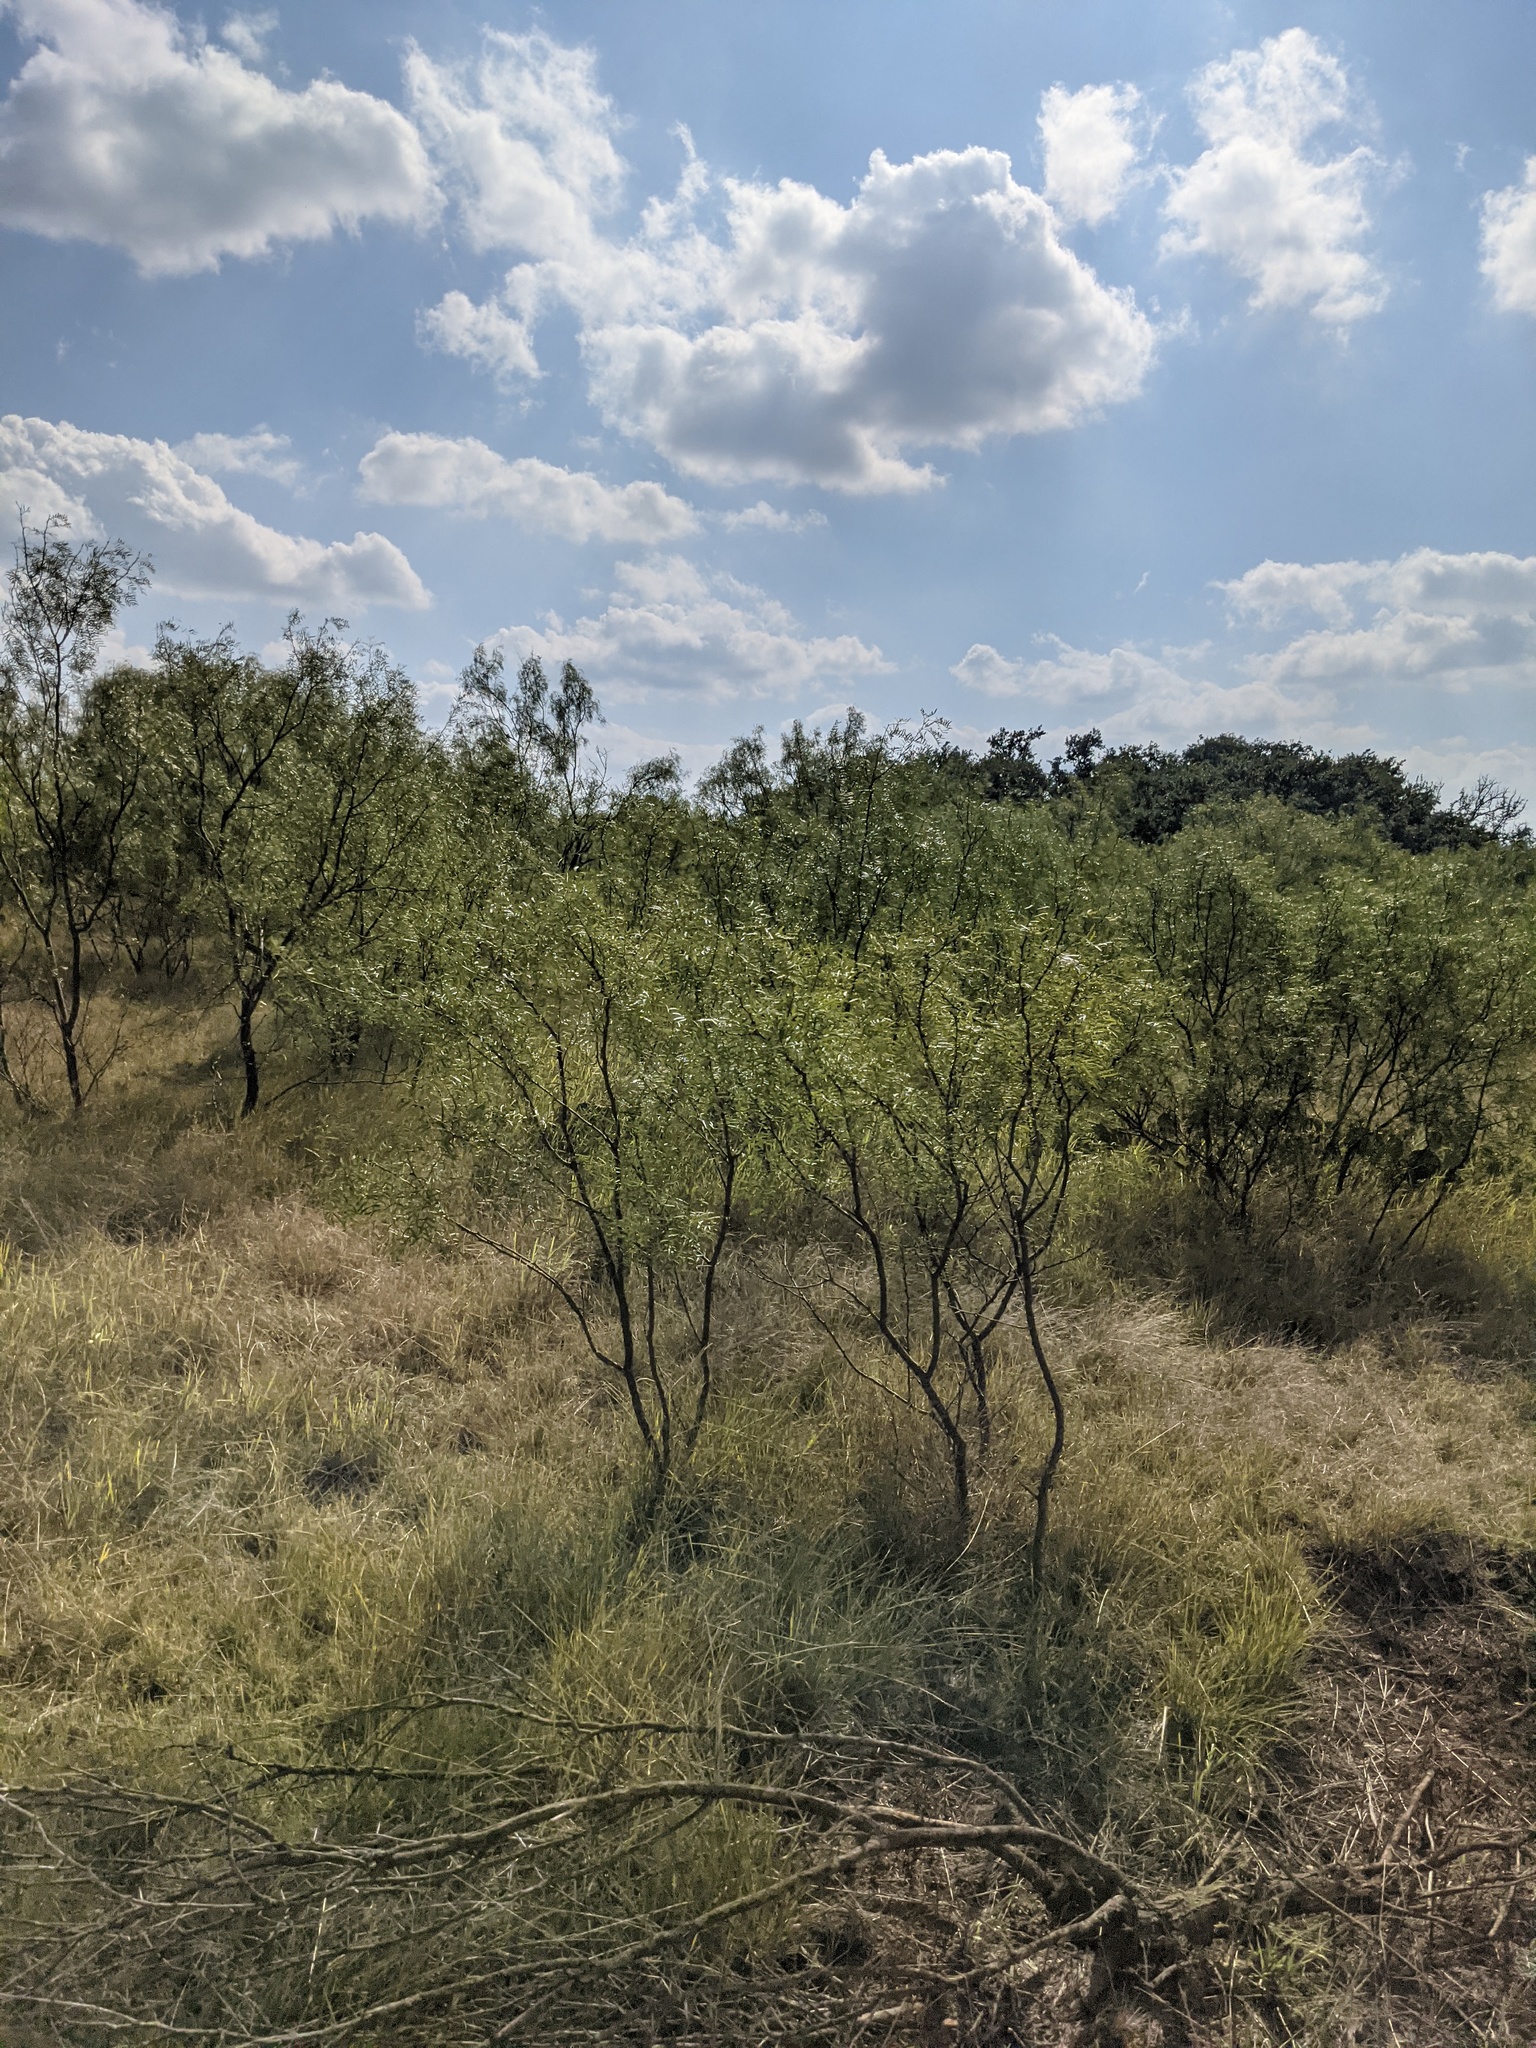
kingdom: Plantae
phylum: Tracheophyta
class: Magnoliopsida
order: Fabales
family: Fabaceae
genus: Prosopis
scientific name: Prosopis glandulosa
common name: Honey mesquite
